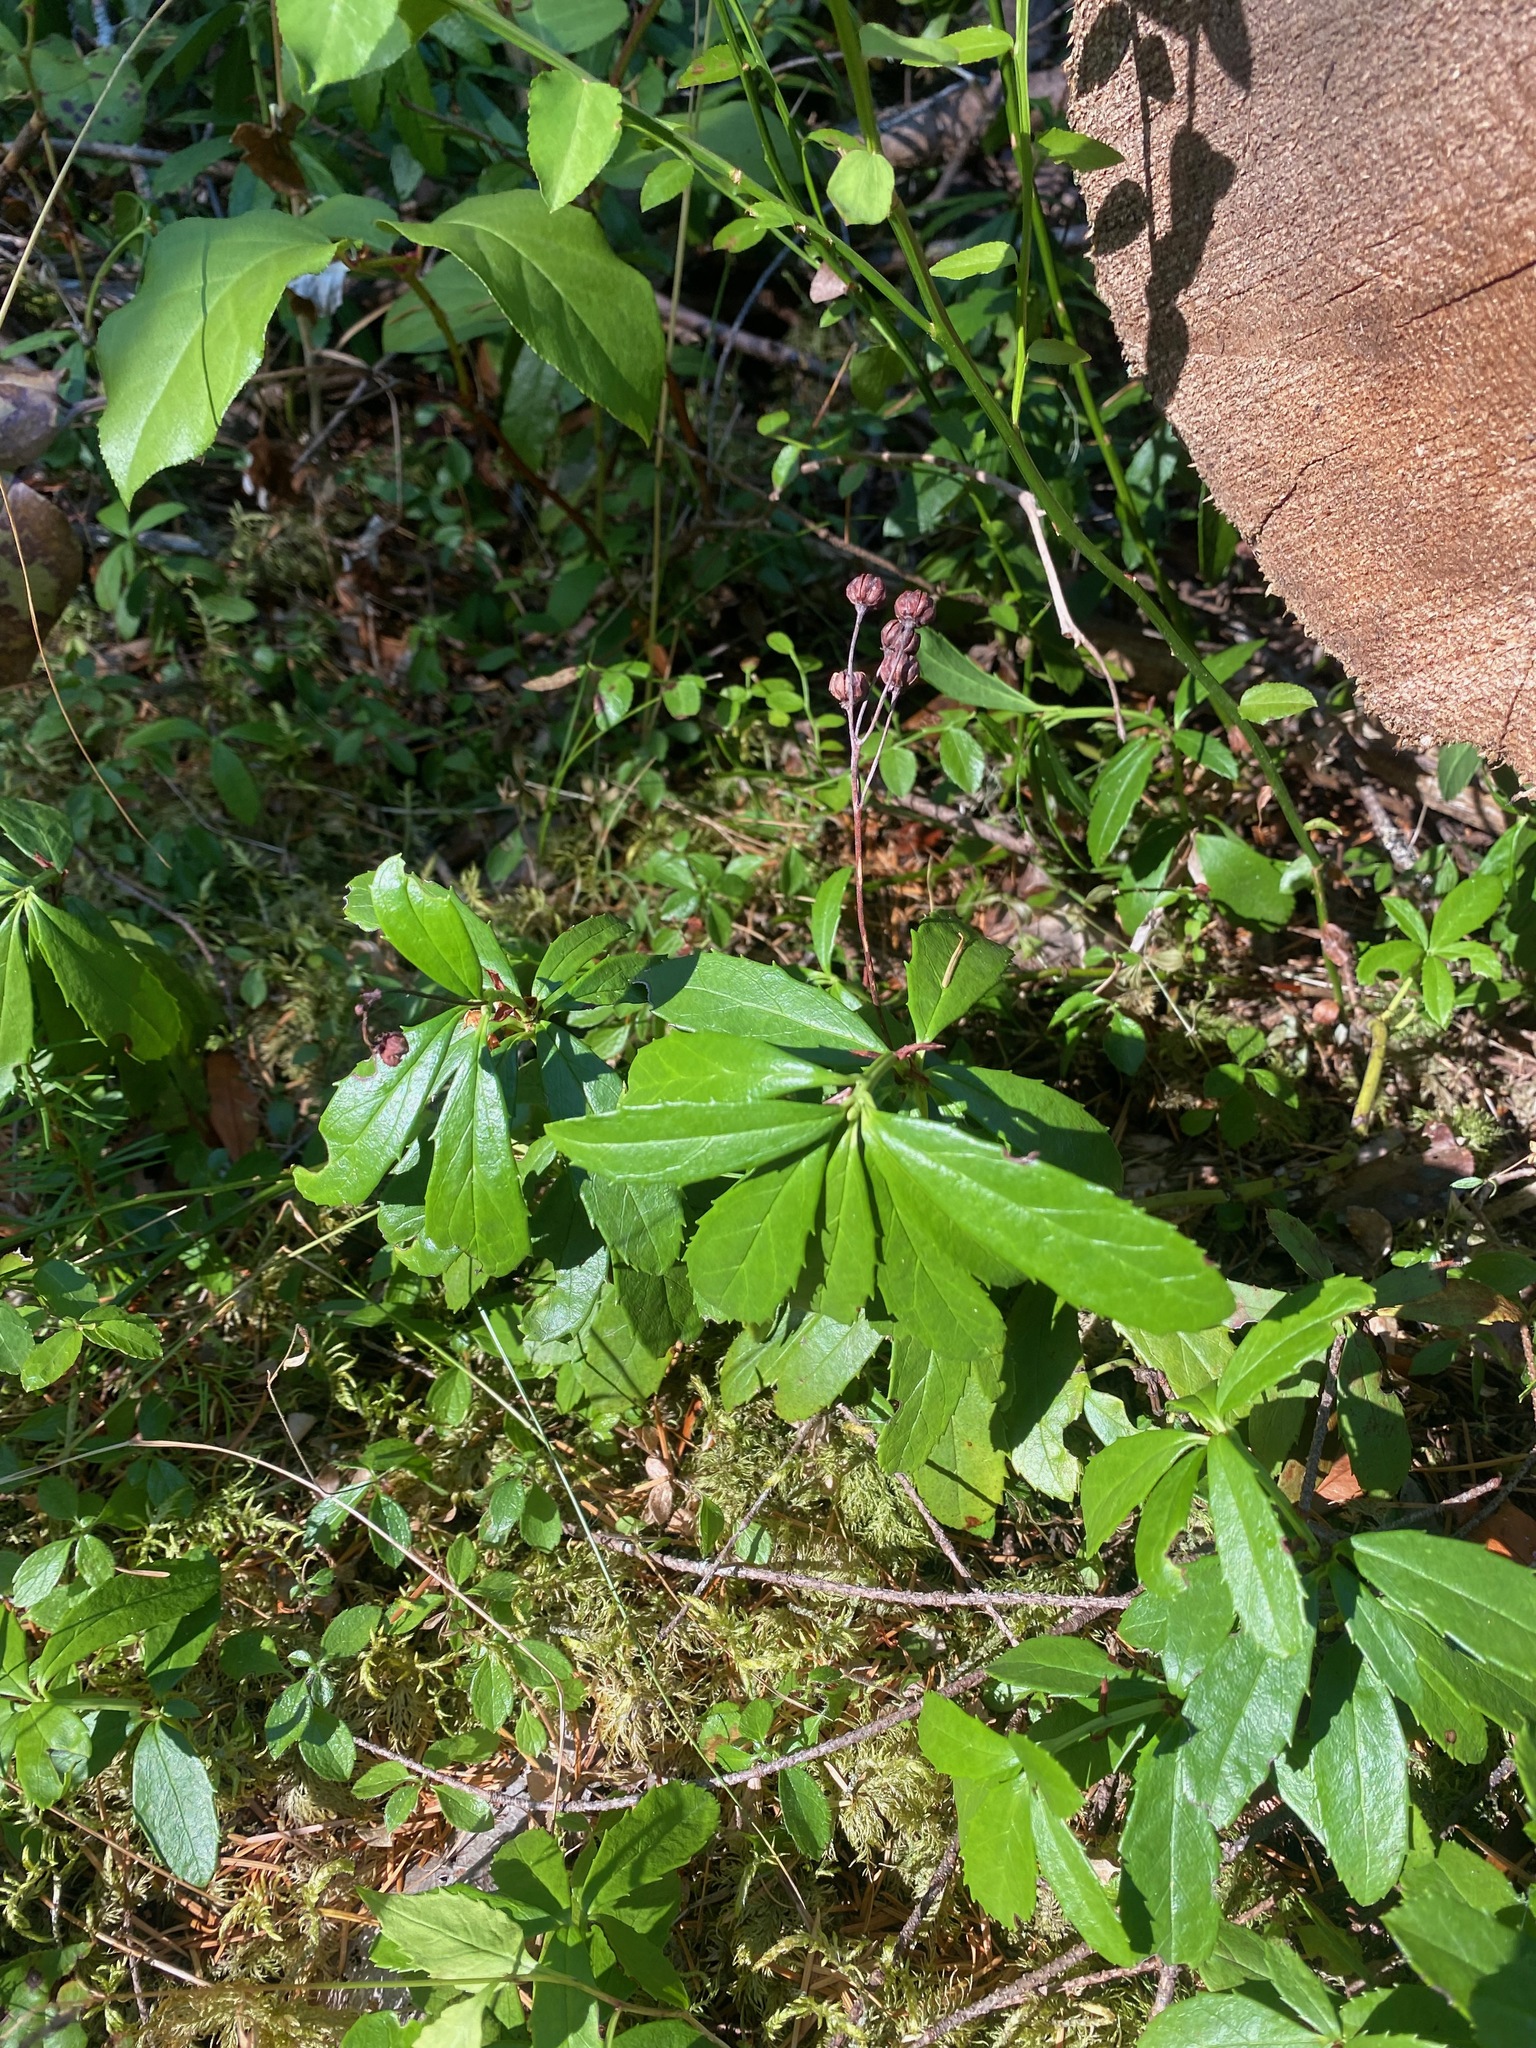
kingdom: Plantae
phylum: Tracheophyta
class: Magnoliopsida
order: Ericales
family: Ericaceae
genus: Chimaphila
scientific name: Chimaphila umbellata
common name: Pipsissewa
